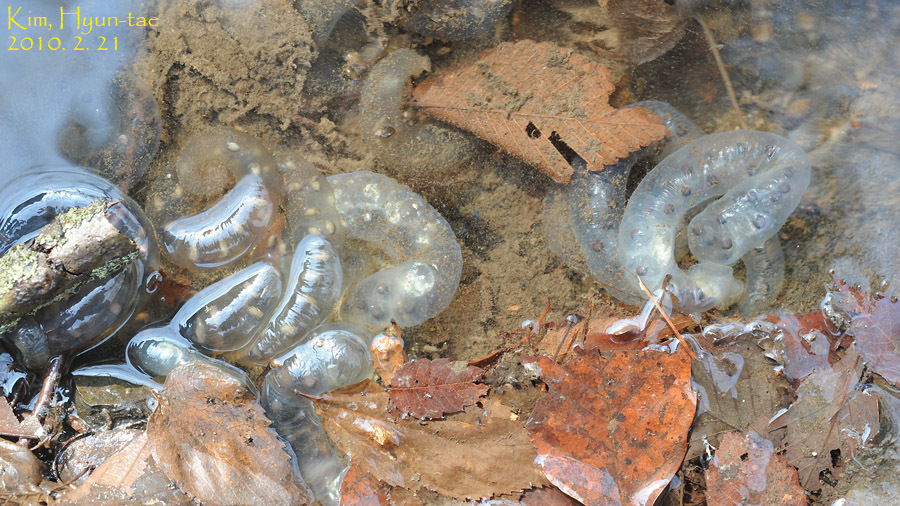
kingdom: Animalia
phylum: Chordata
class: Amphibia
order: Caudata
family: Hynobiidae
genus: Hynobius
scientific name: Hynobius leechii
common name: Gensan salamander
